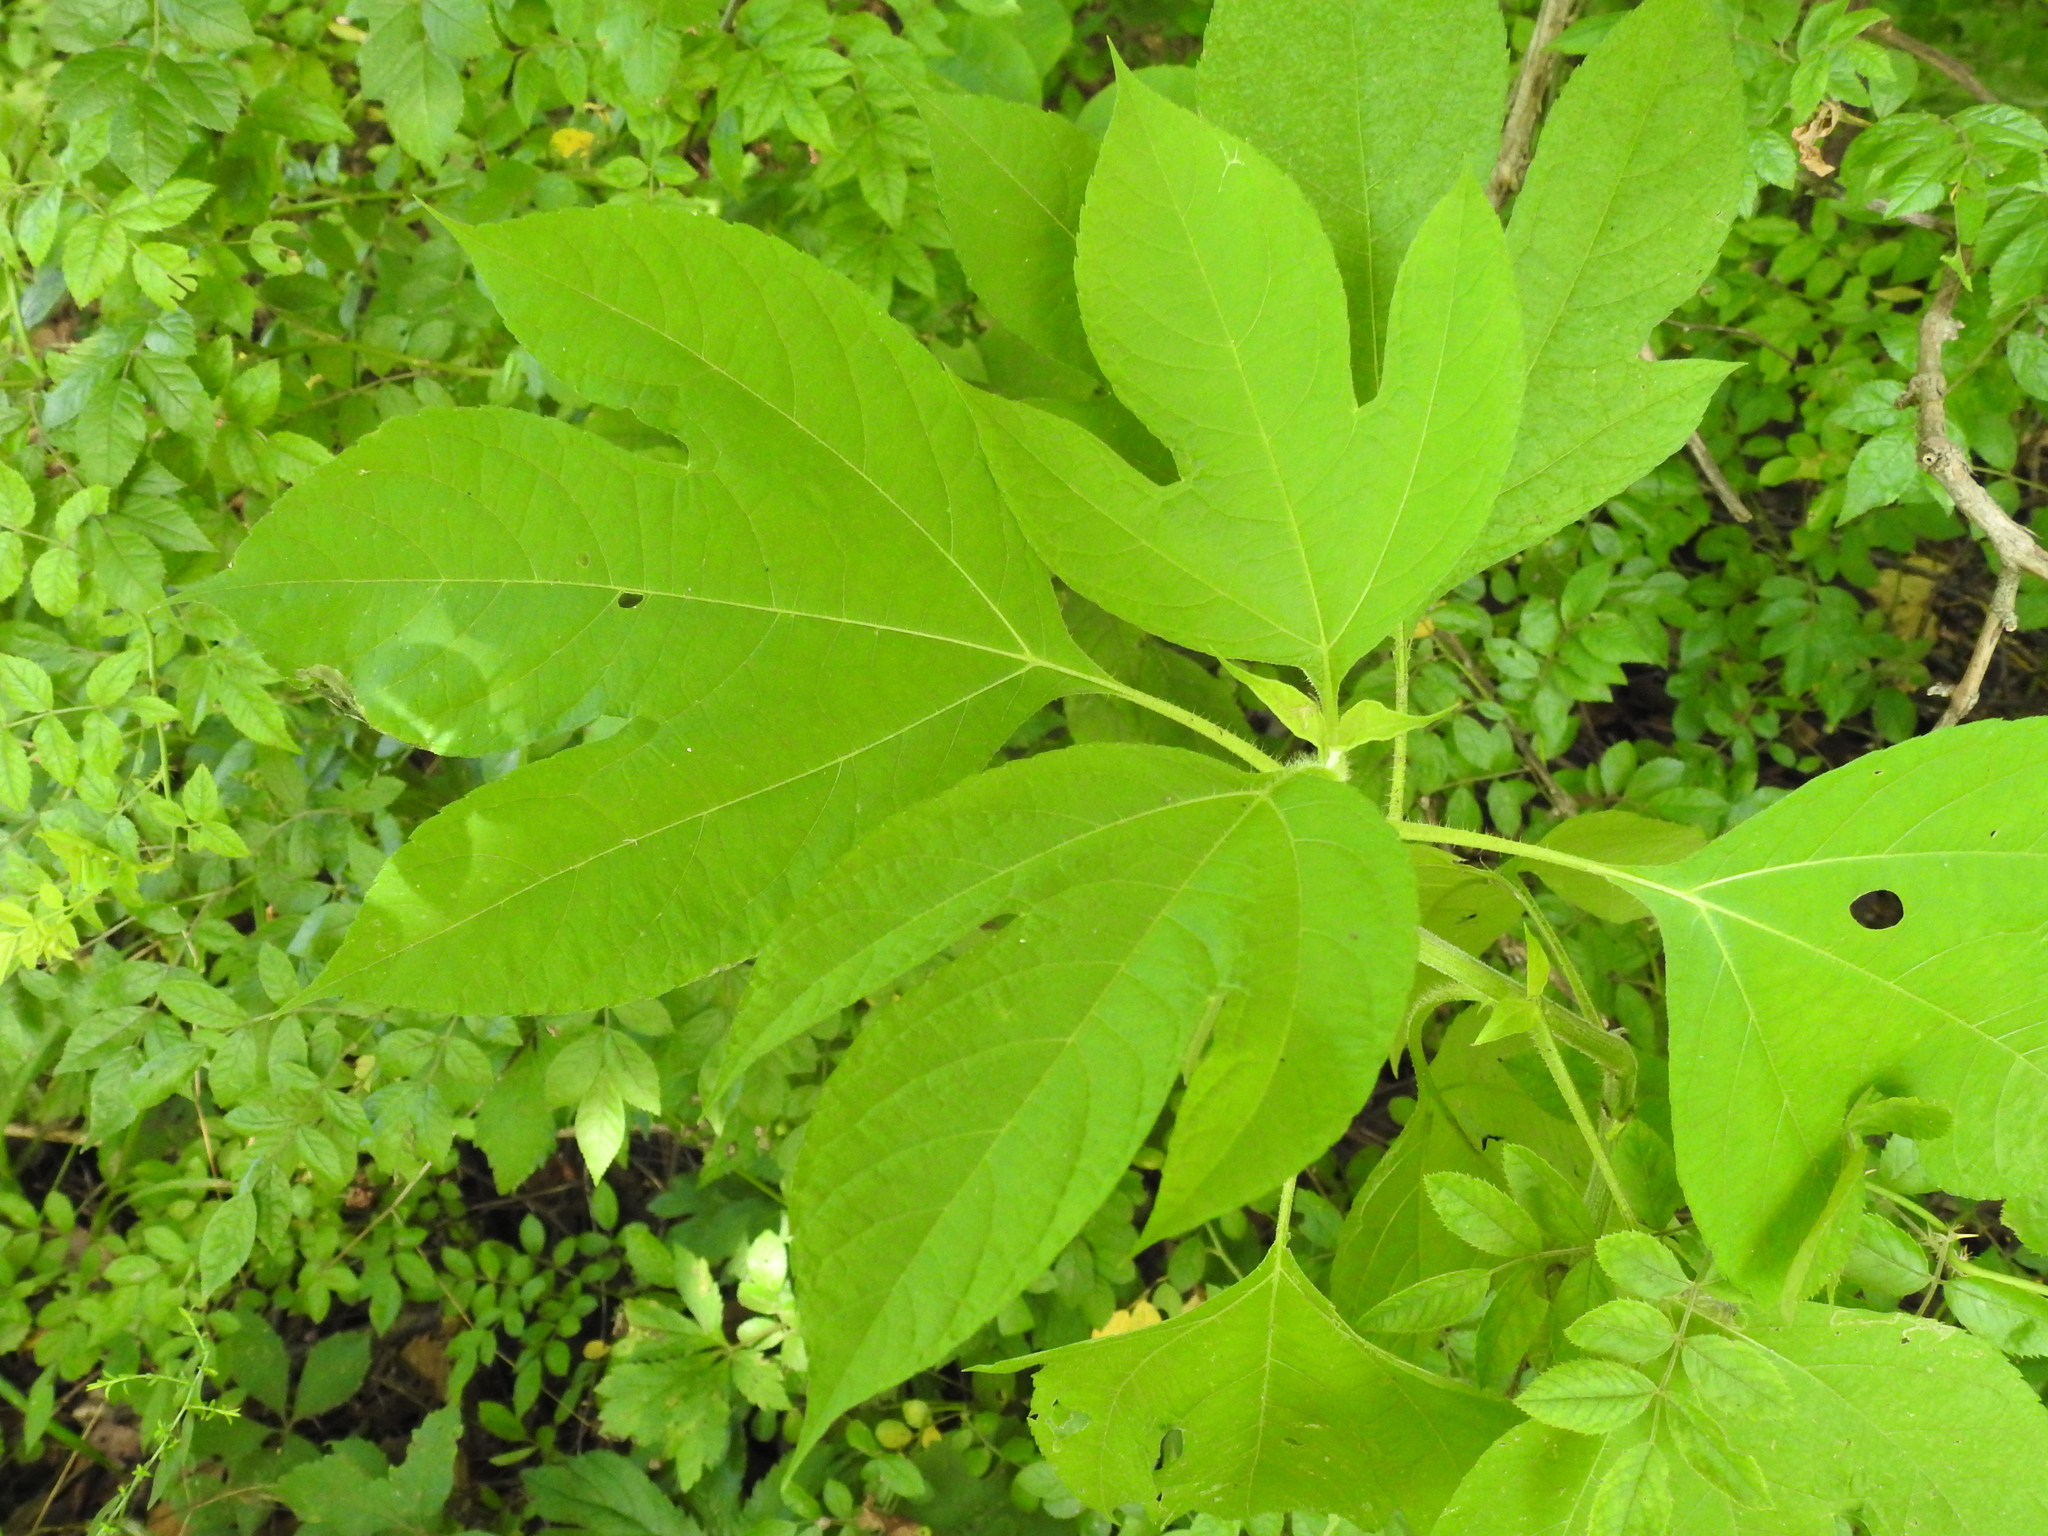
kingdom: Plantae
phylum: Tracheophyta
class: Magnoliopsida
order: Asterales
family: Asteraceae
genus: Ambrosia
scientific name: Ambrosia trifida
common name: Giant ragweed
